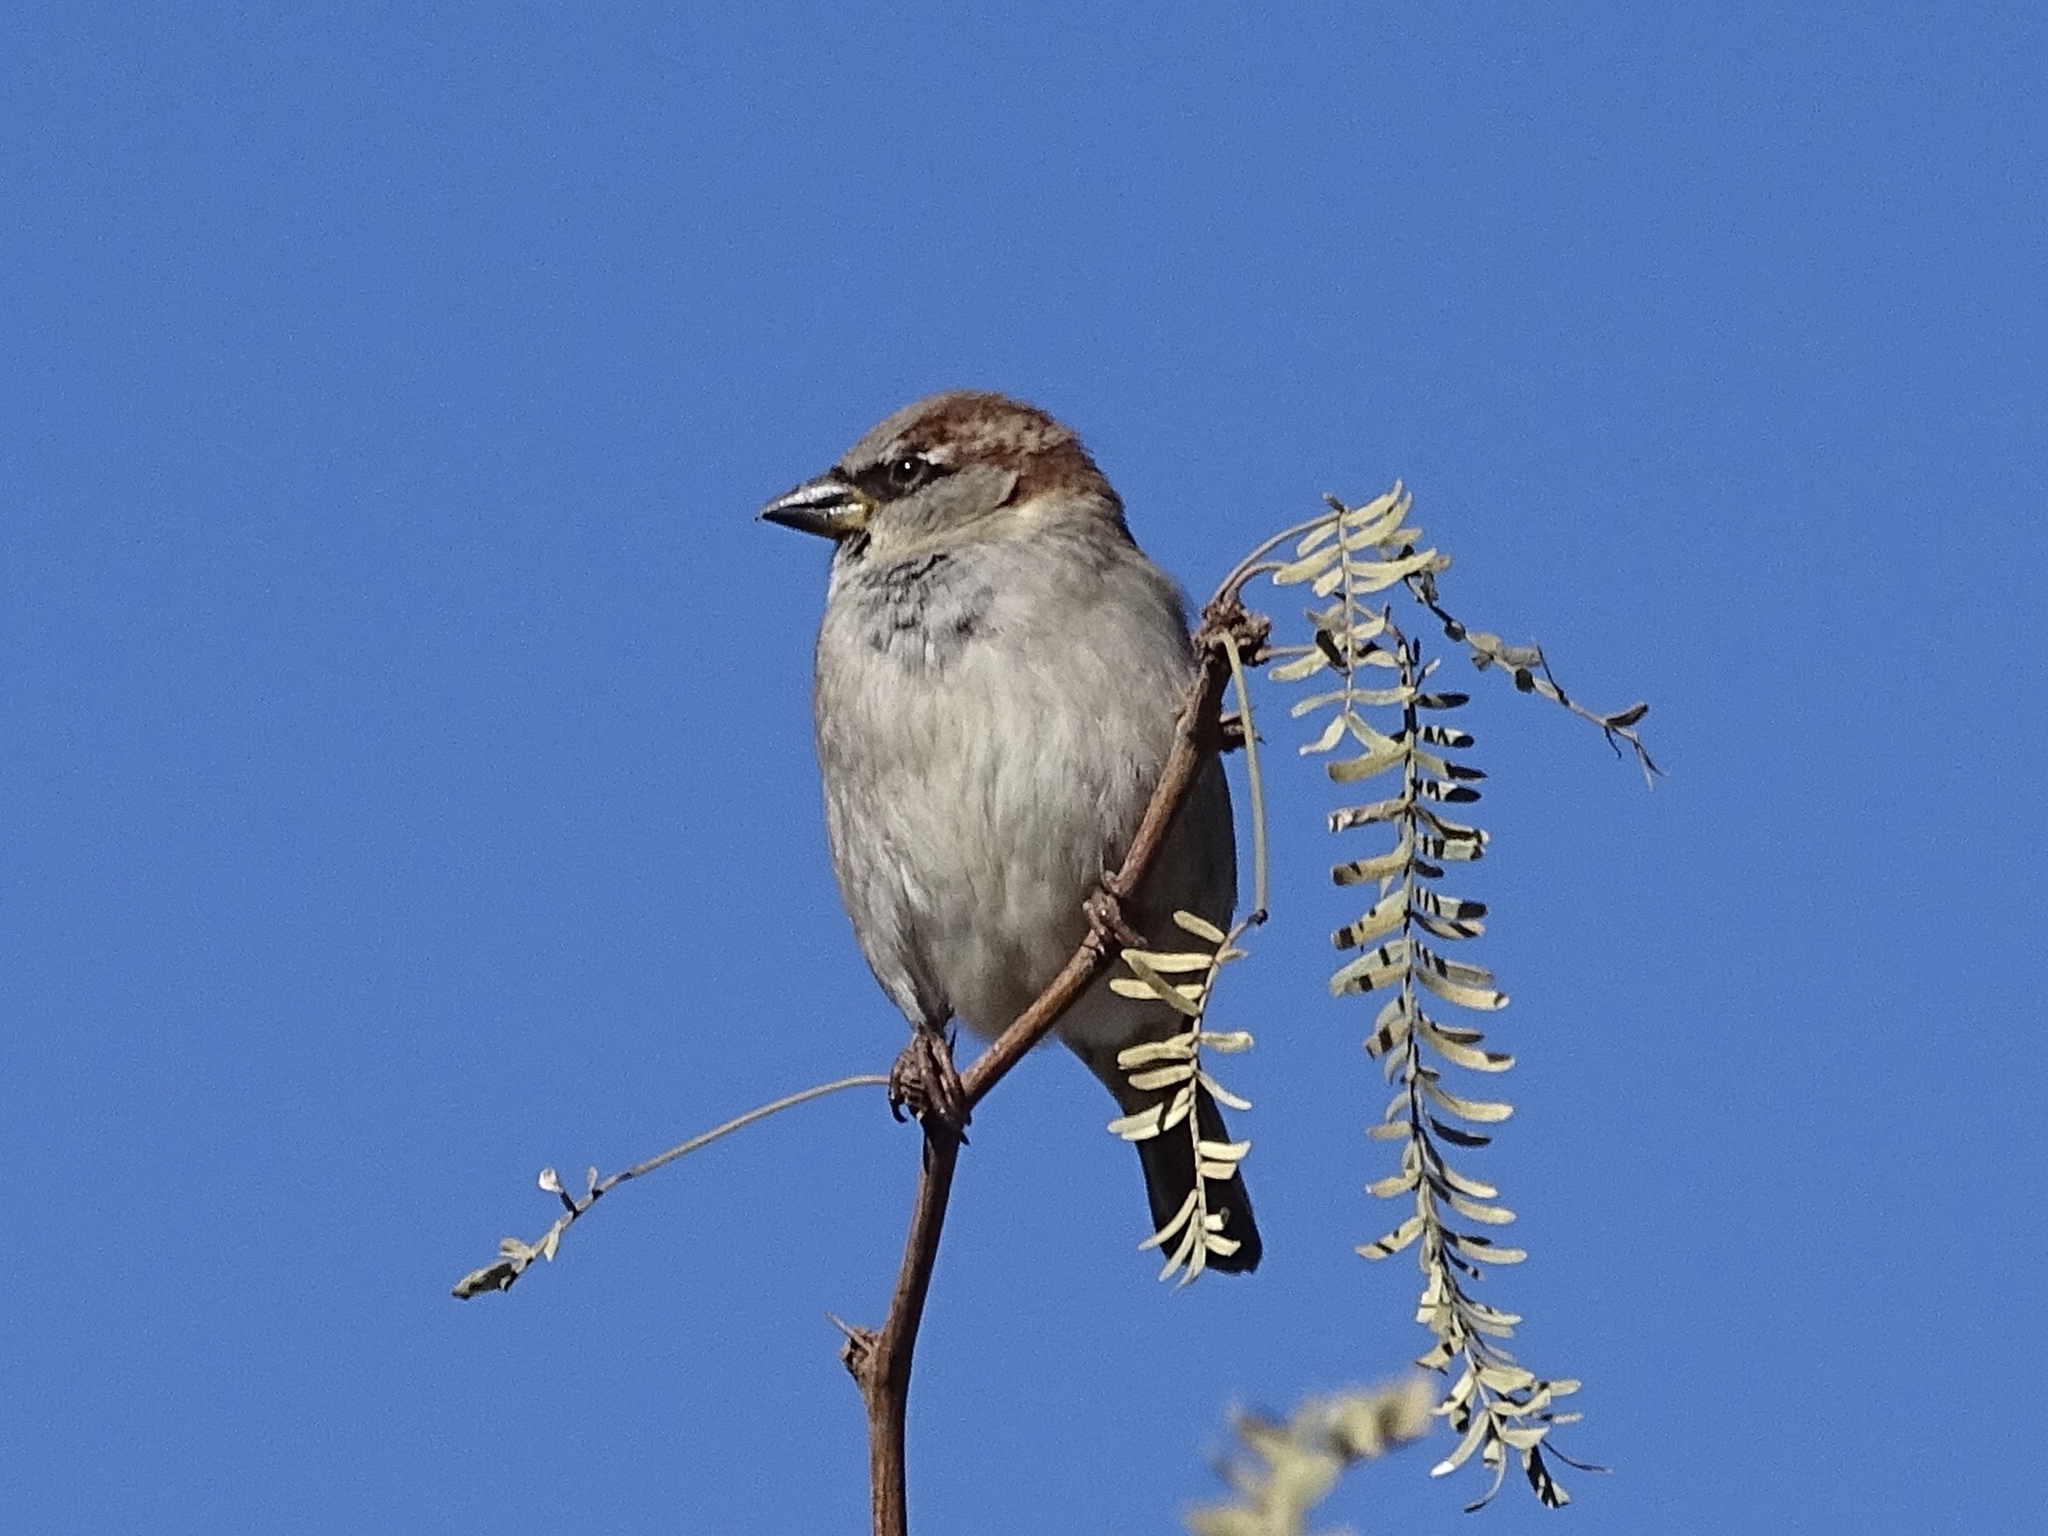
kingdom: Animalia
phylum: Chordata
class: Aves
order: Passeriformes
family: Passeridae
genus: Passer
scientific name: Passer domesticus
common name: House sparrow
